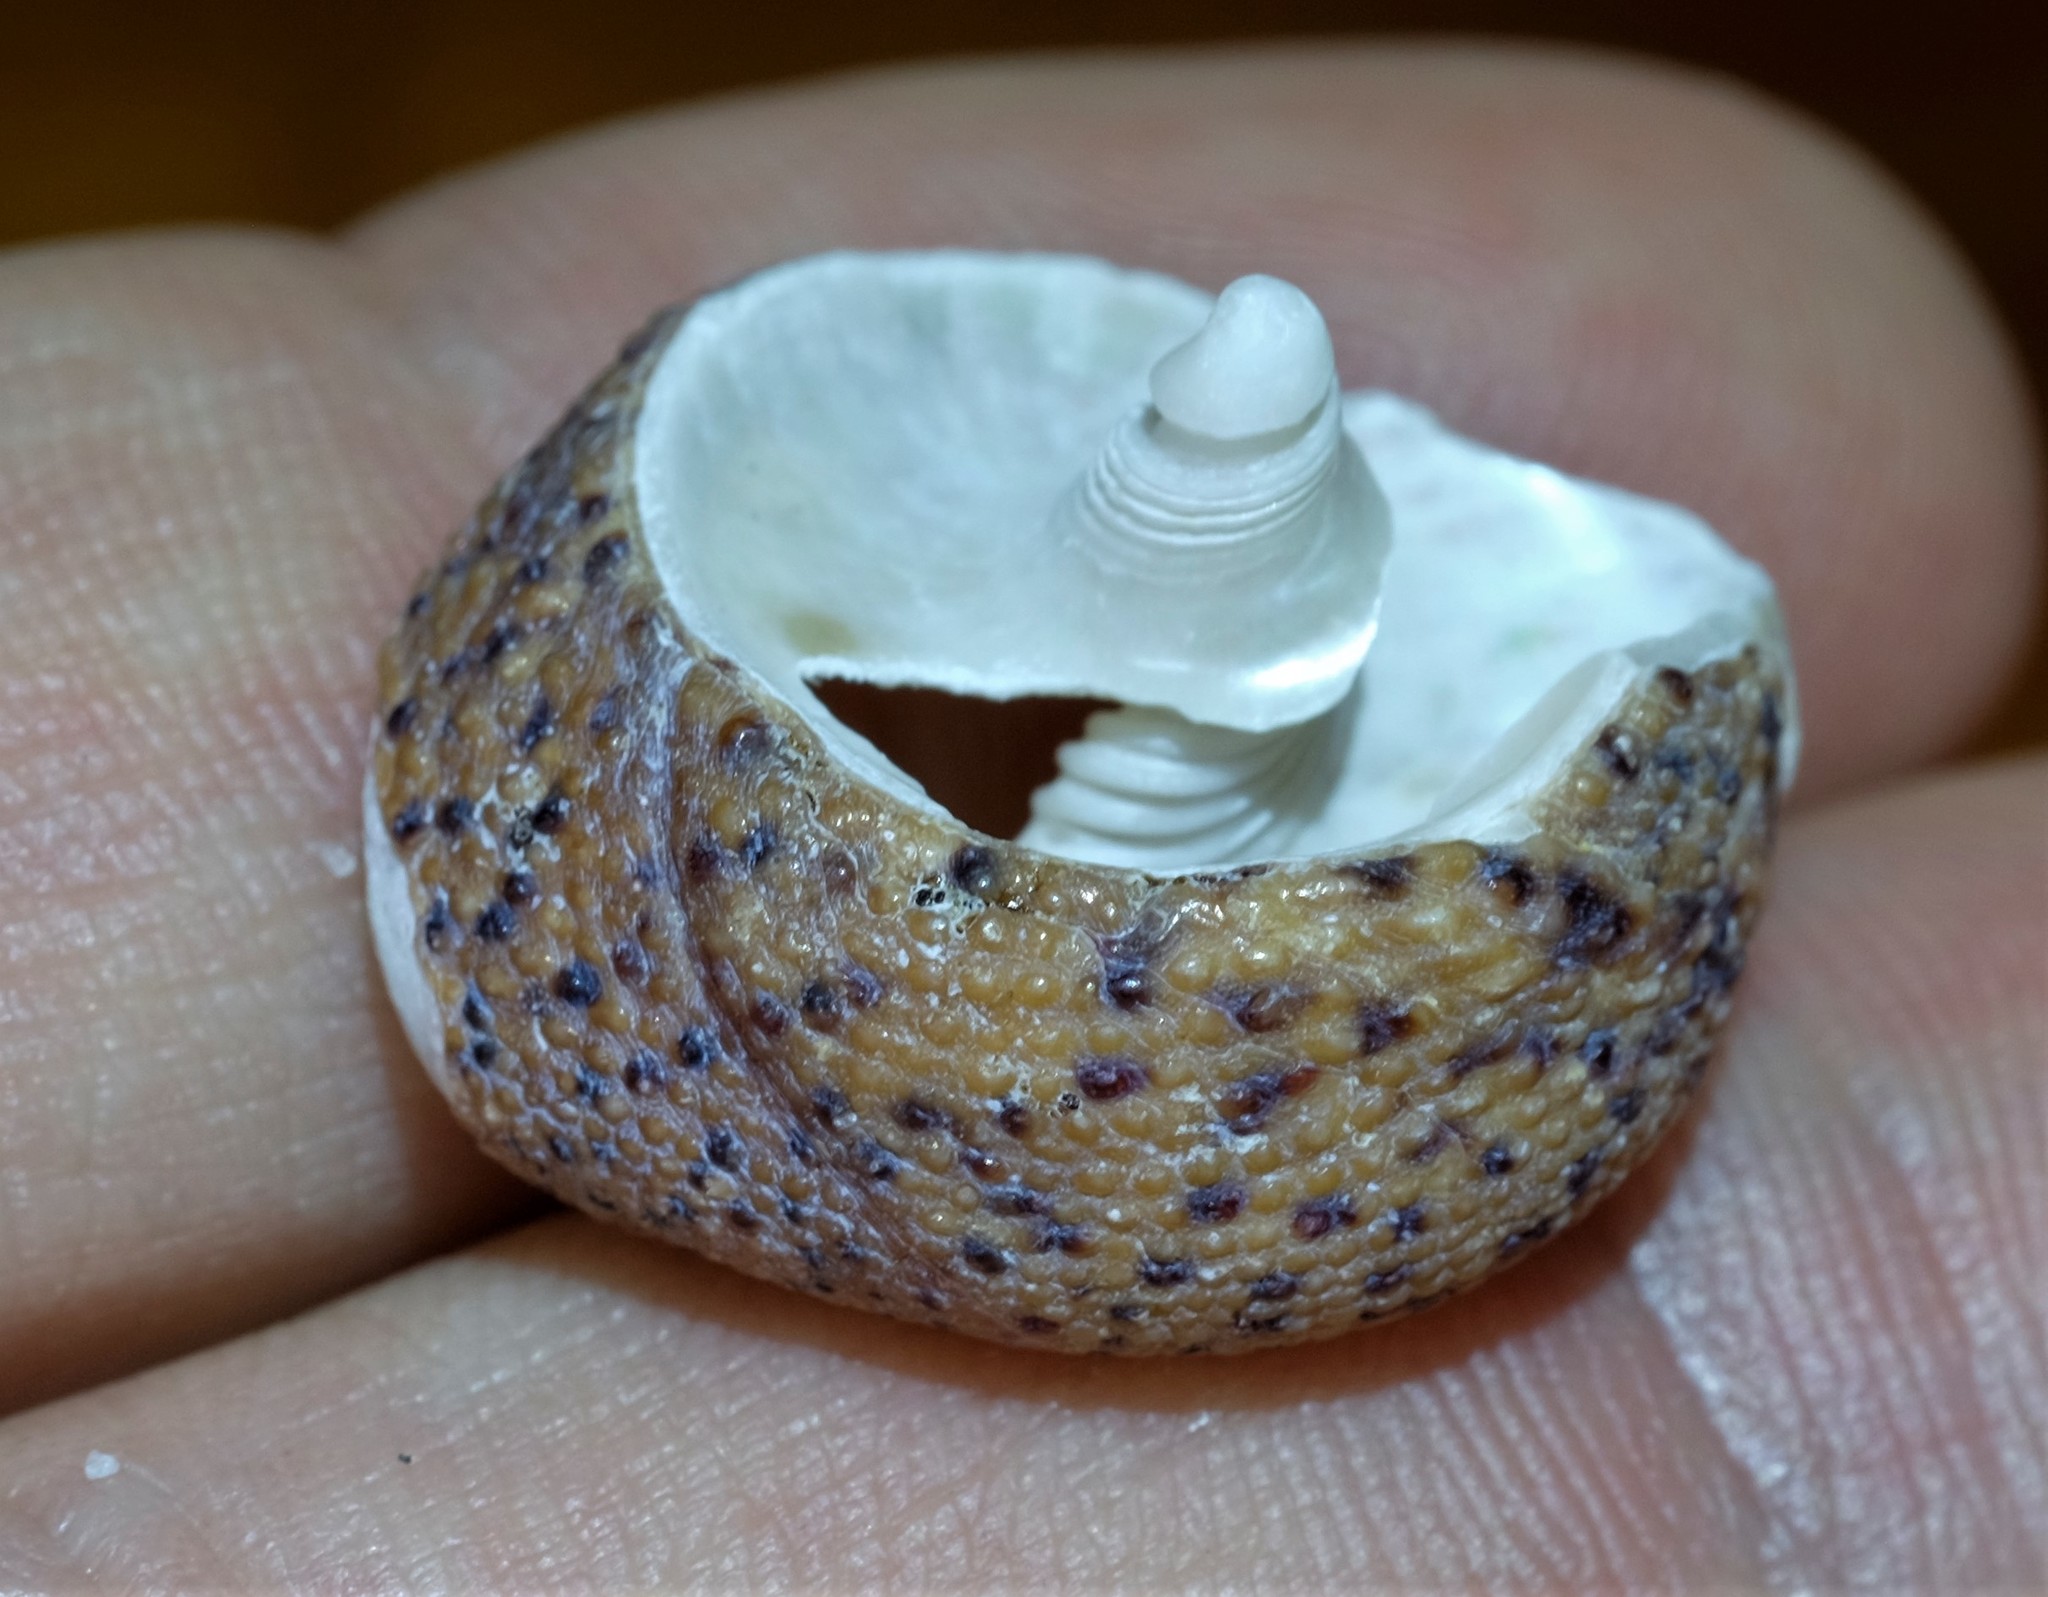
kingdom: Animalia
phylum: Mollusca
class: Gastropoda
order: Trochida
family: Trochidae
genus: Clanculus
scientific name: Clanculus undatus
